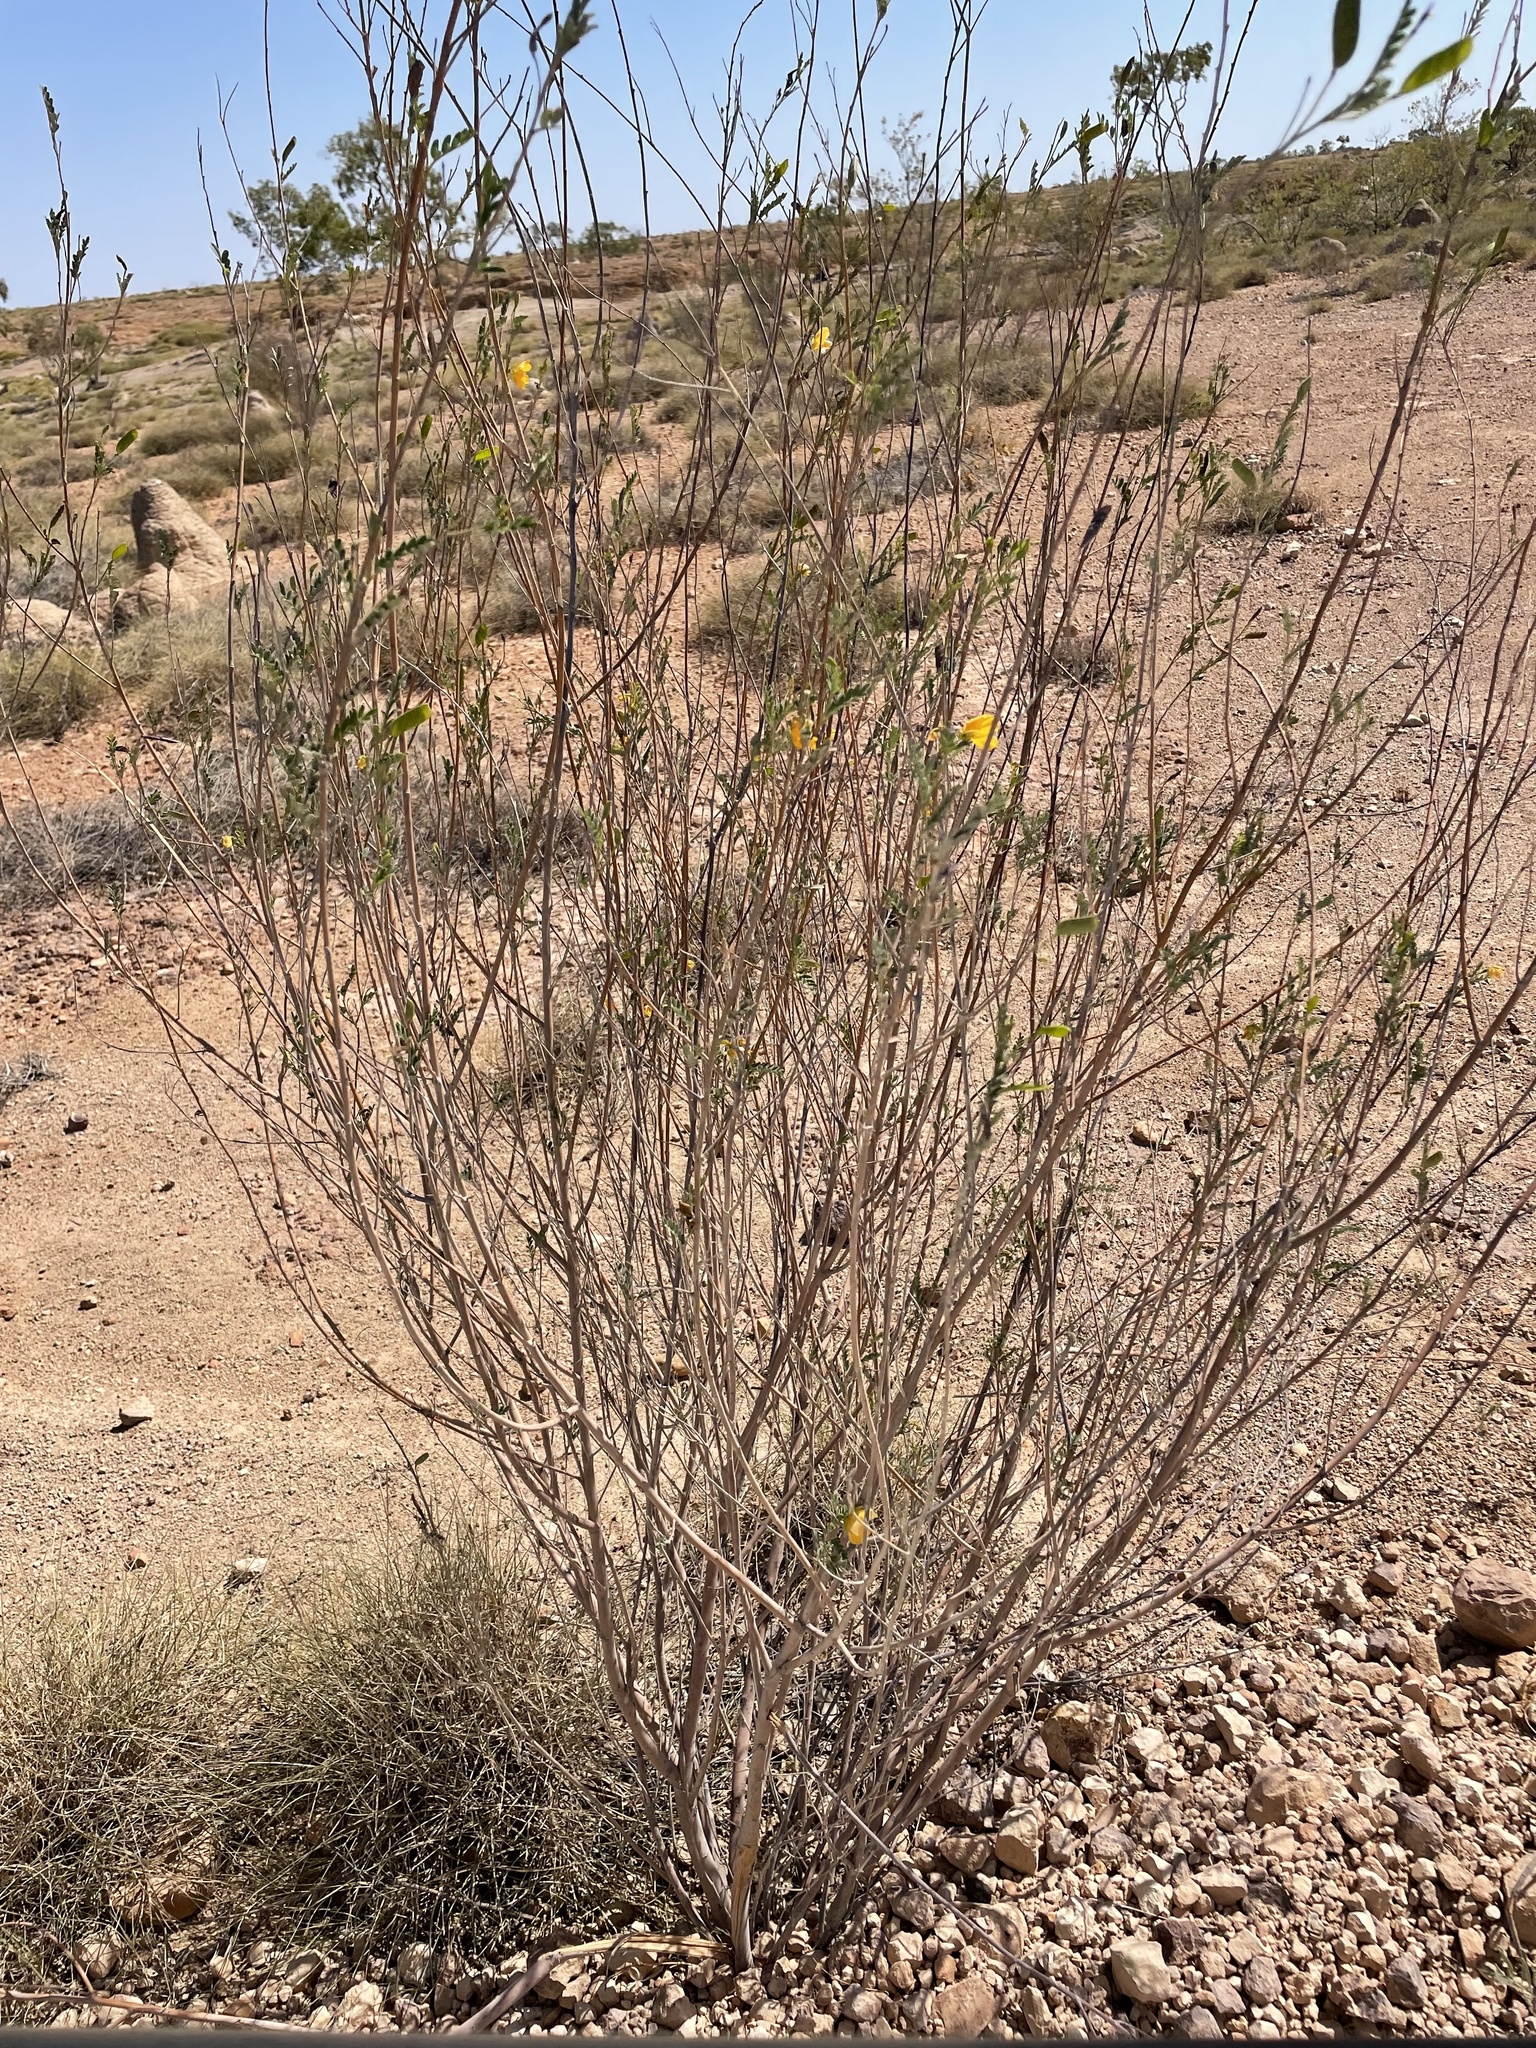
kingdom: Plantae
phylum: Tracheophyta
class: Magnoliopsida
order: Fabales
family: Fabaceae
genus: Petalostylis
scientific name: Petalostylis cassioides
